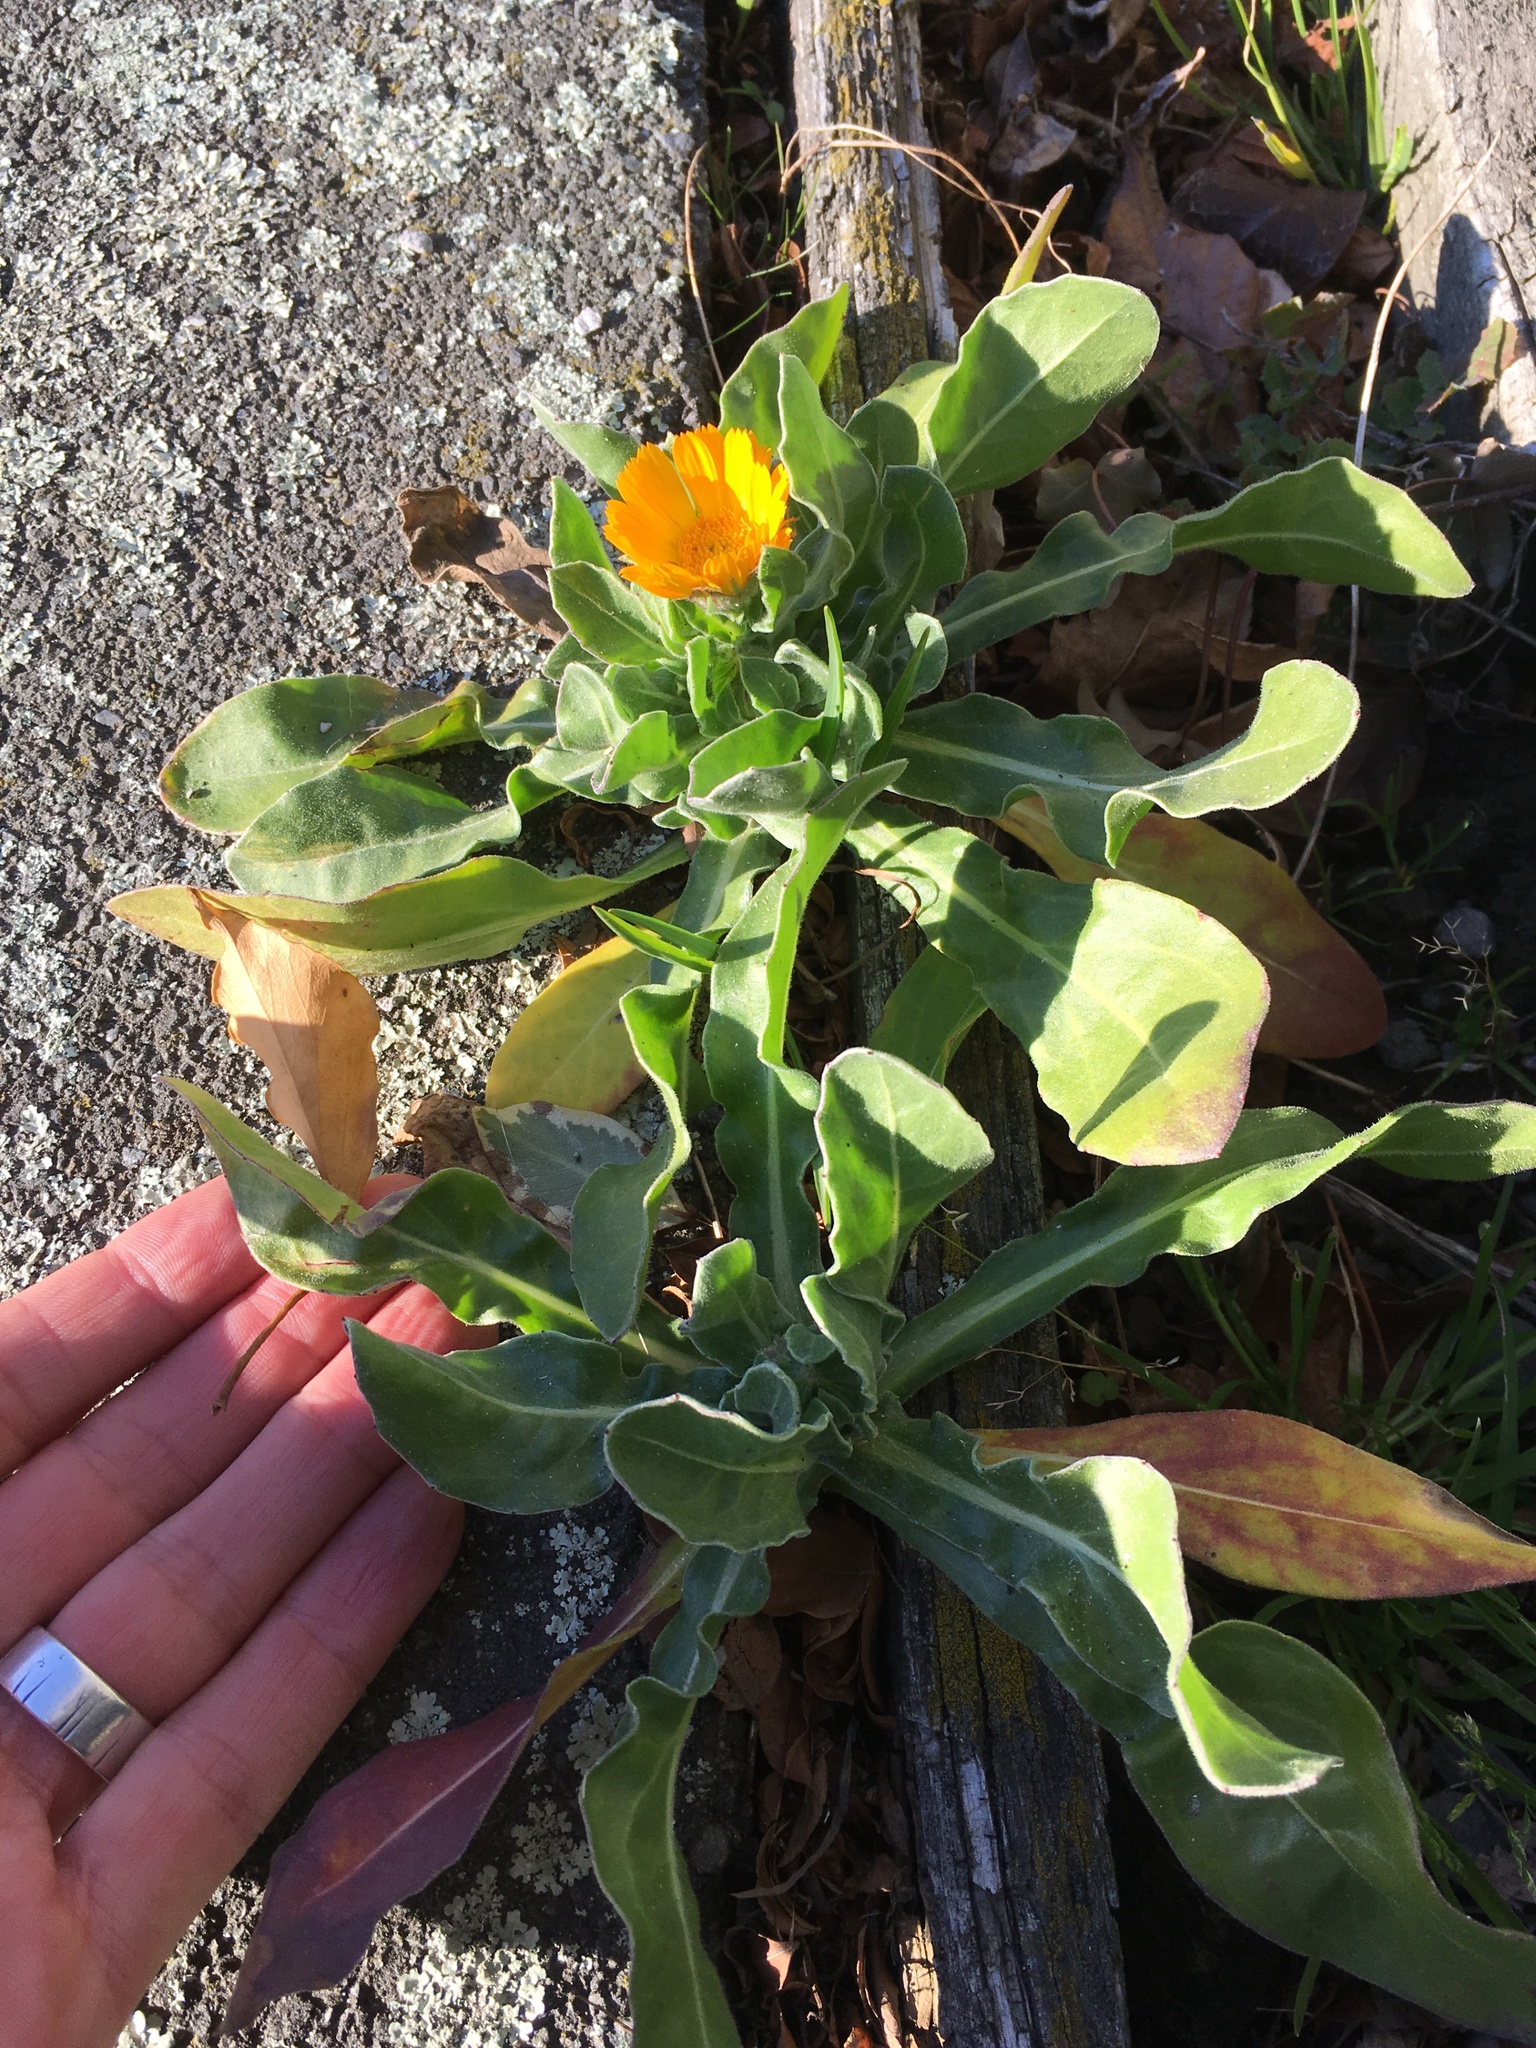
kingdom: Plantae
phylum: Tracheophyta
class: Magnoliopsida
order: Asterales
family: Asteraceae
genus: Calendula
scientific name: Calendula officinalis
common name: Pot marigold
